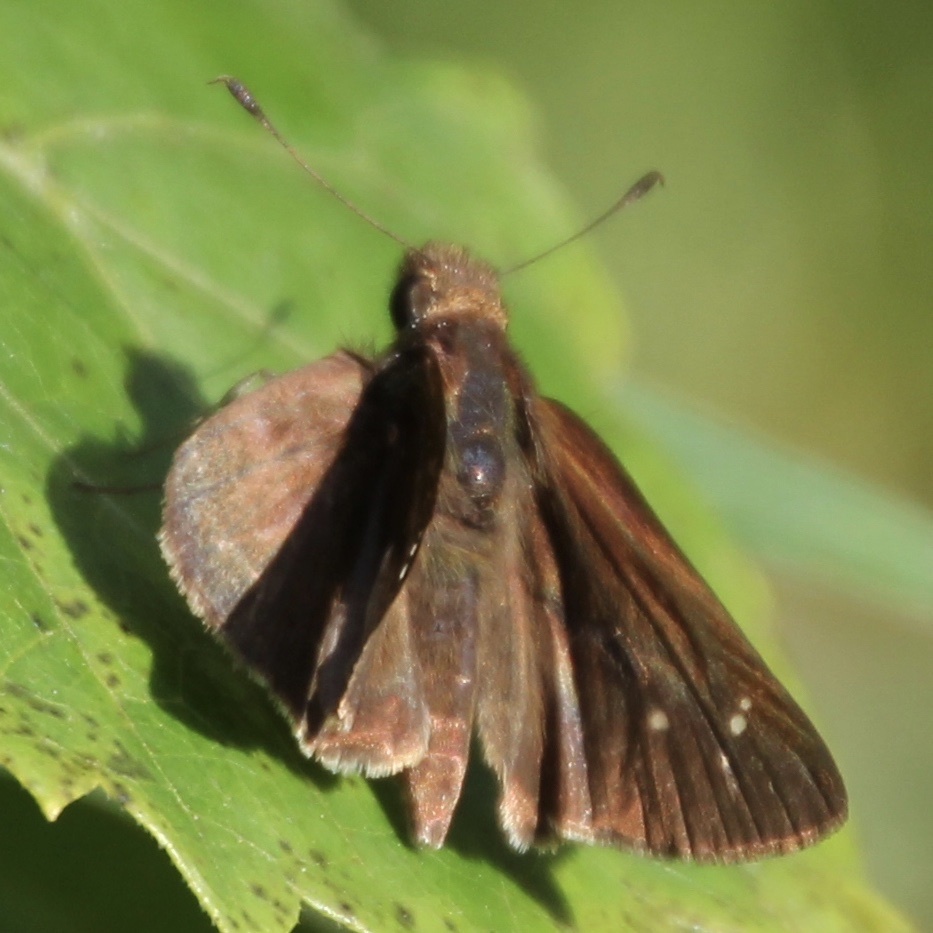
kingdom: Animalia
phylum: Arthropoda
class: Insecta
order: Lepidoptera
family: Hesperiidae
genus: Lerema
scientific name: Lerema accius
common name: Clouded skipper
